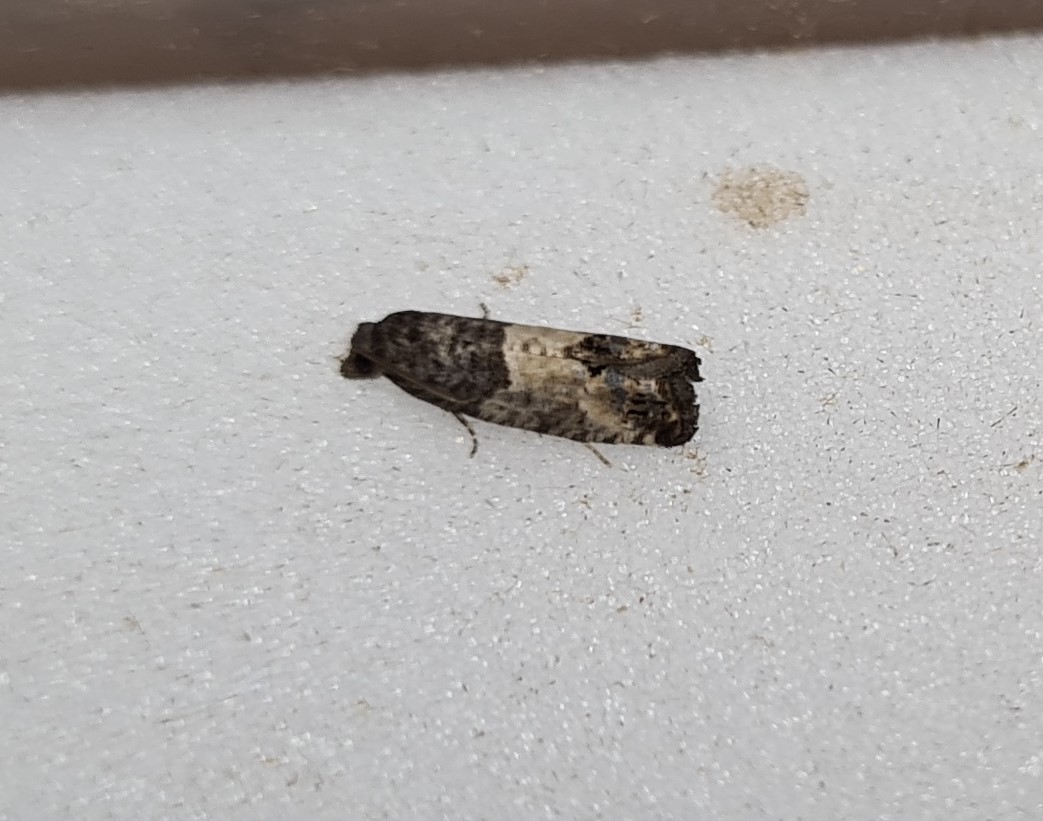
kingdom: Animalia
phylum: Arthropoda
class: Insecta
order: Lepidoptera
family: Tortricidae
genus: Spilonota
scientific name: Spilonota ocellana
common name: Bud moth
